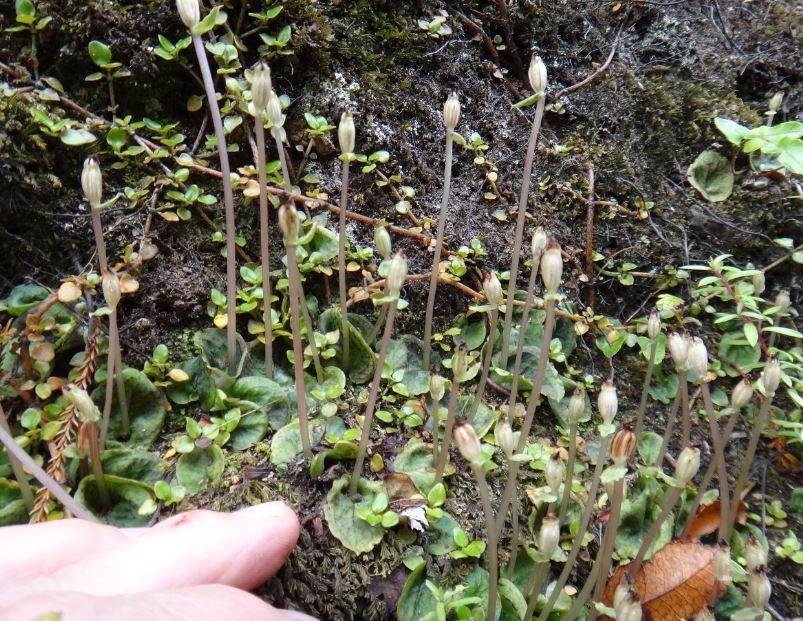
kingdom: Plantae
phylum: Tracheophyta
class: Liliopsida
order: Asparagales
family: Orchidaceae
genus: Corybas
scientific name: Corybas oblongus
